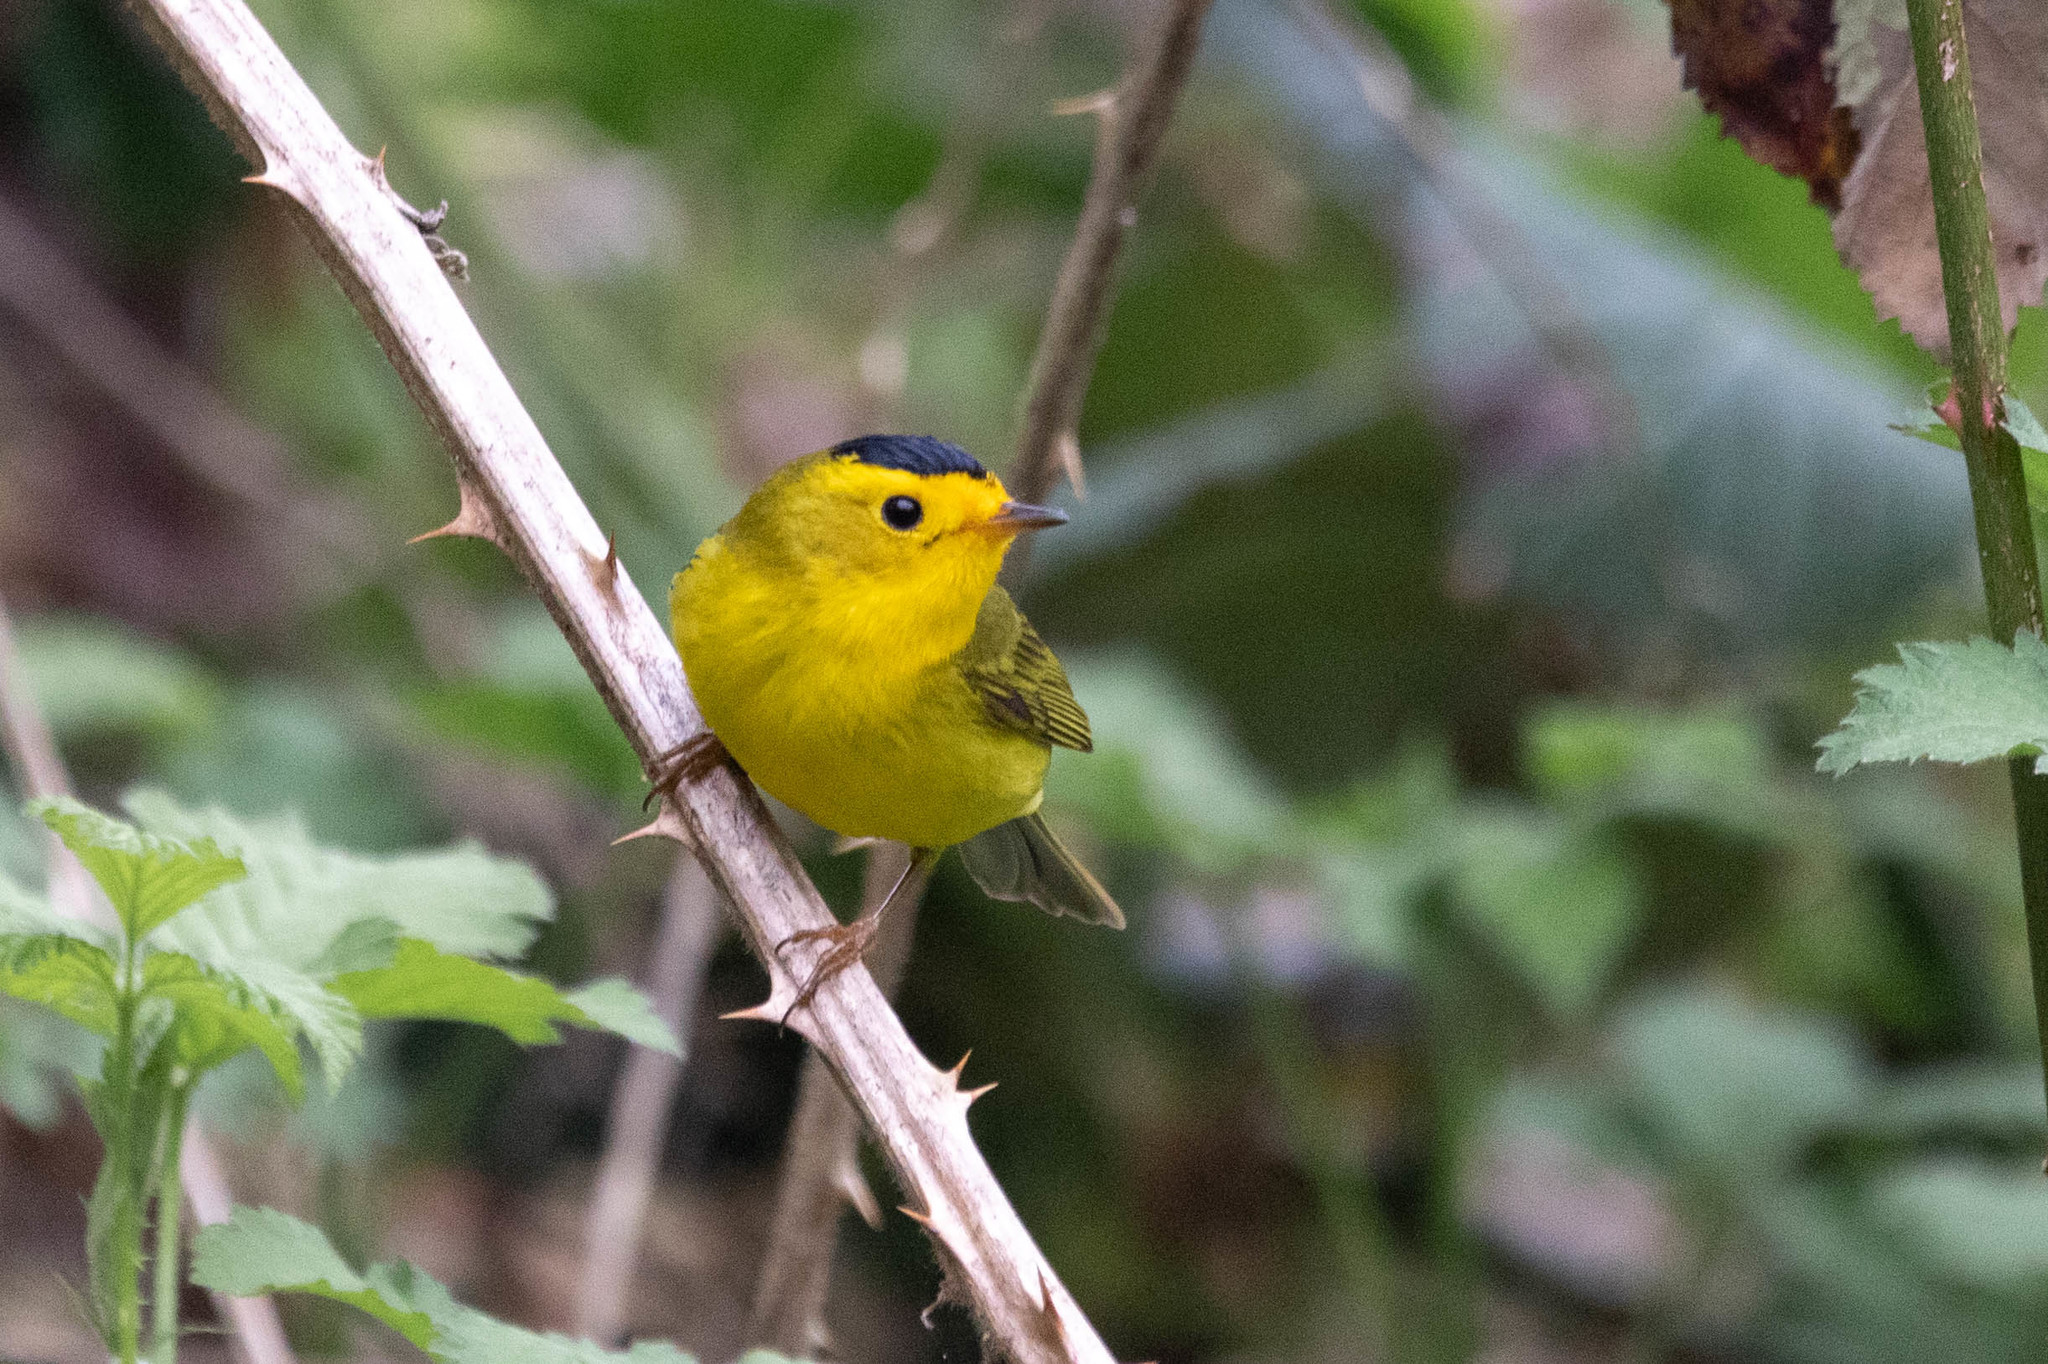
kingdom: Animalia
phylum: Chordata
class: Aves
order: Passeriformes
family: Parulidae
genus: Cardellina
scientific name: Cardellina pusilla
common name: Wilson's warbler
